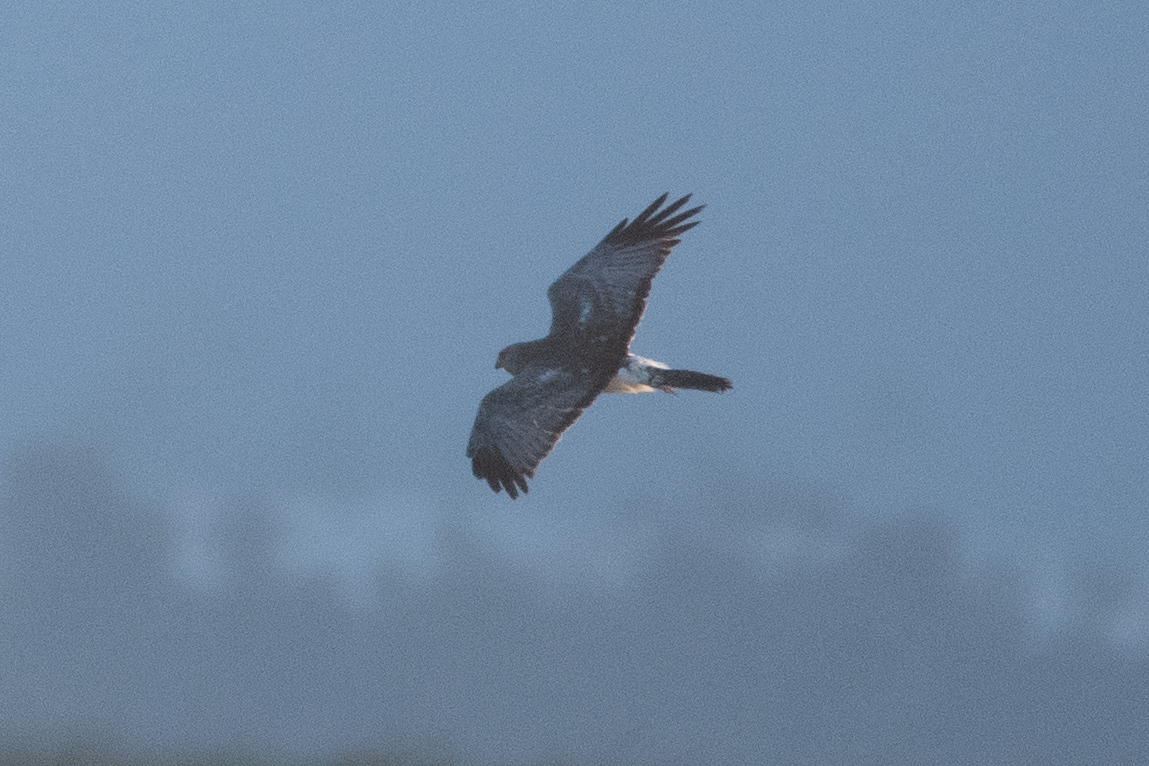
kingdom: Animalia
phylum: Chordata
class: Aves
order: Accipitriformes
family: Accipitridae
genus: Circus
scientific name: Circus cyaneus
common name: Hen harrier
